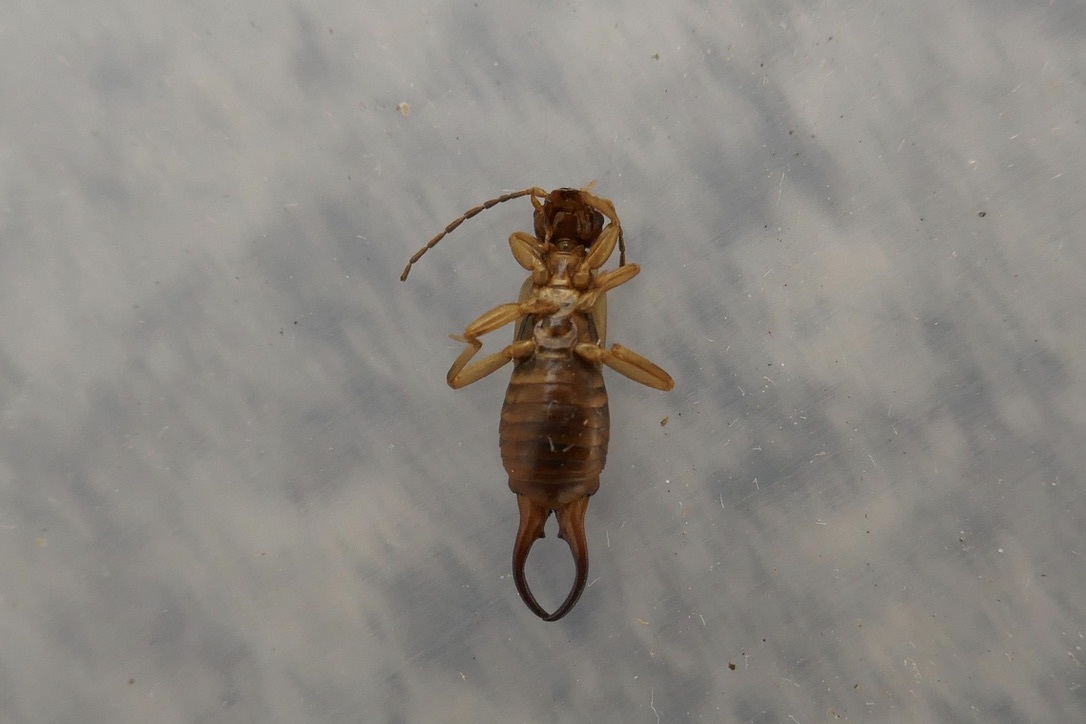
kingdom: Animalia
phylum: Arthropoda
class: Insecta
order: Dermaptera
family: Forficulidae
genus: Forficula
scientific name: Forficula
